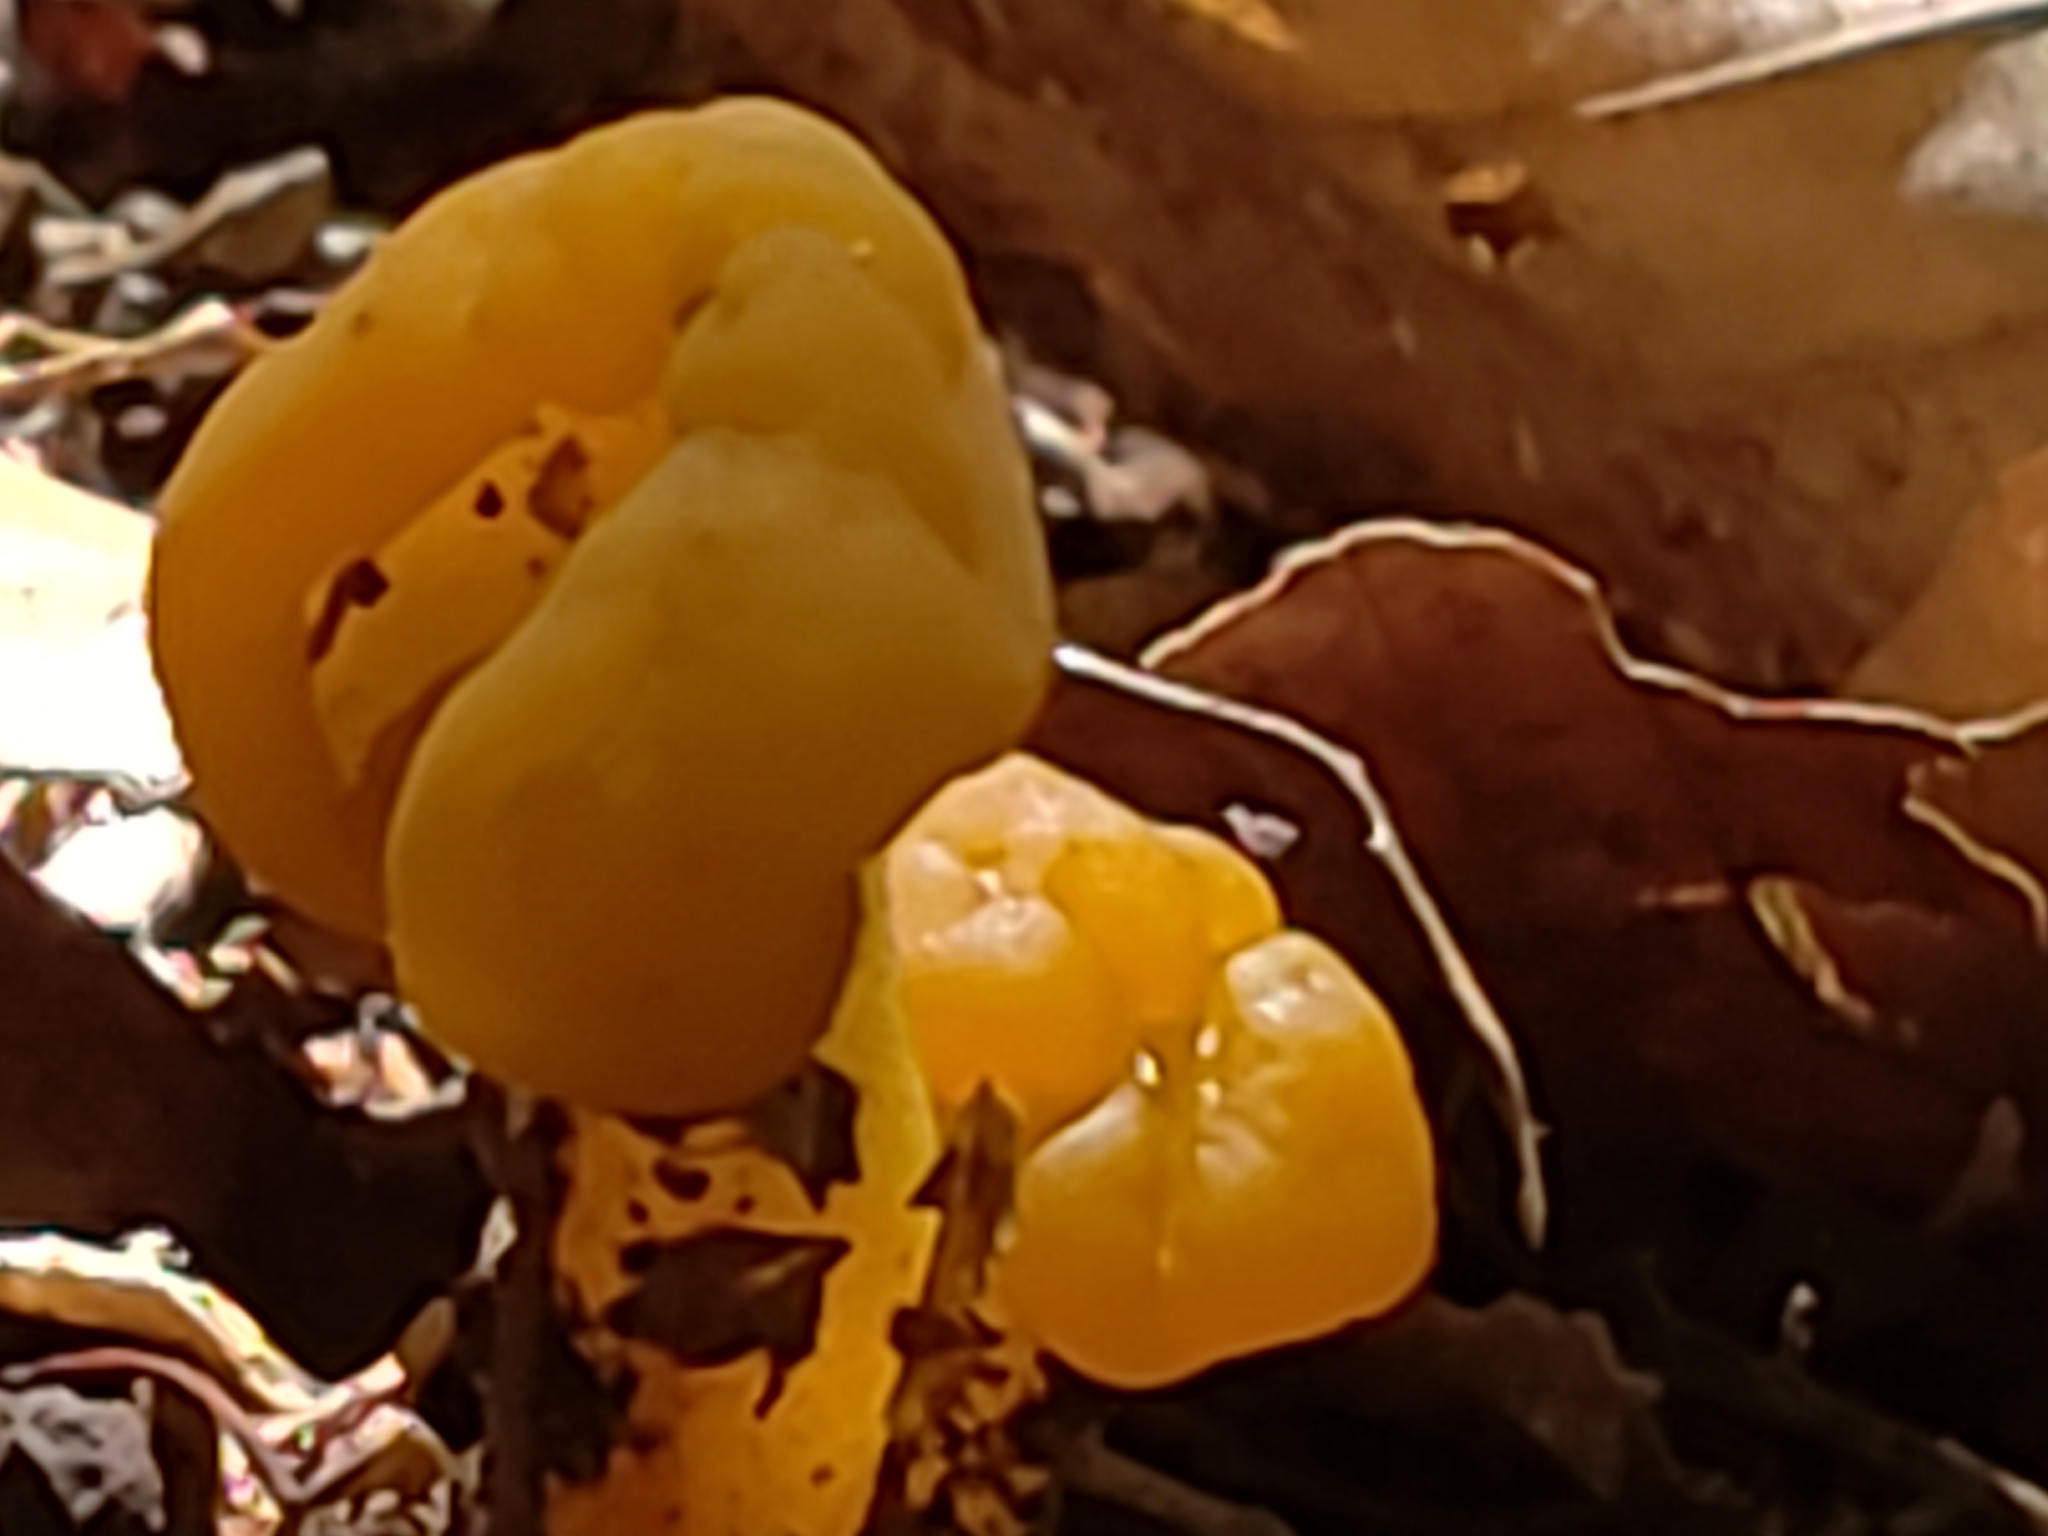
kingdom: Fungi
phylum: Ascomycota
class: Leotiomycetes
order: Leotiales
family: Leotiaceae
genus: Leotia
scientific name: Leotia lubrica
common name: Jellybaby
